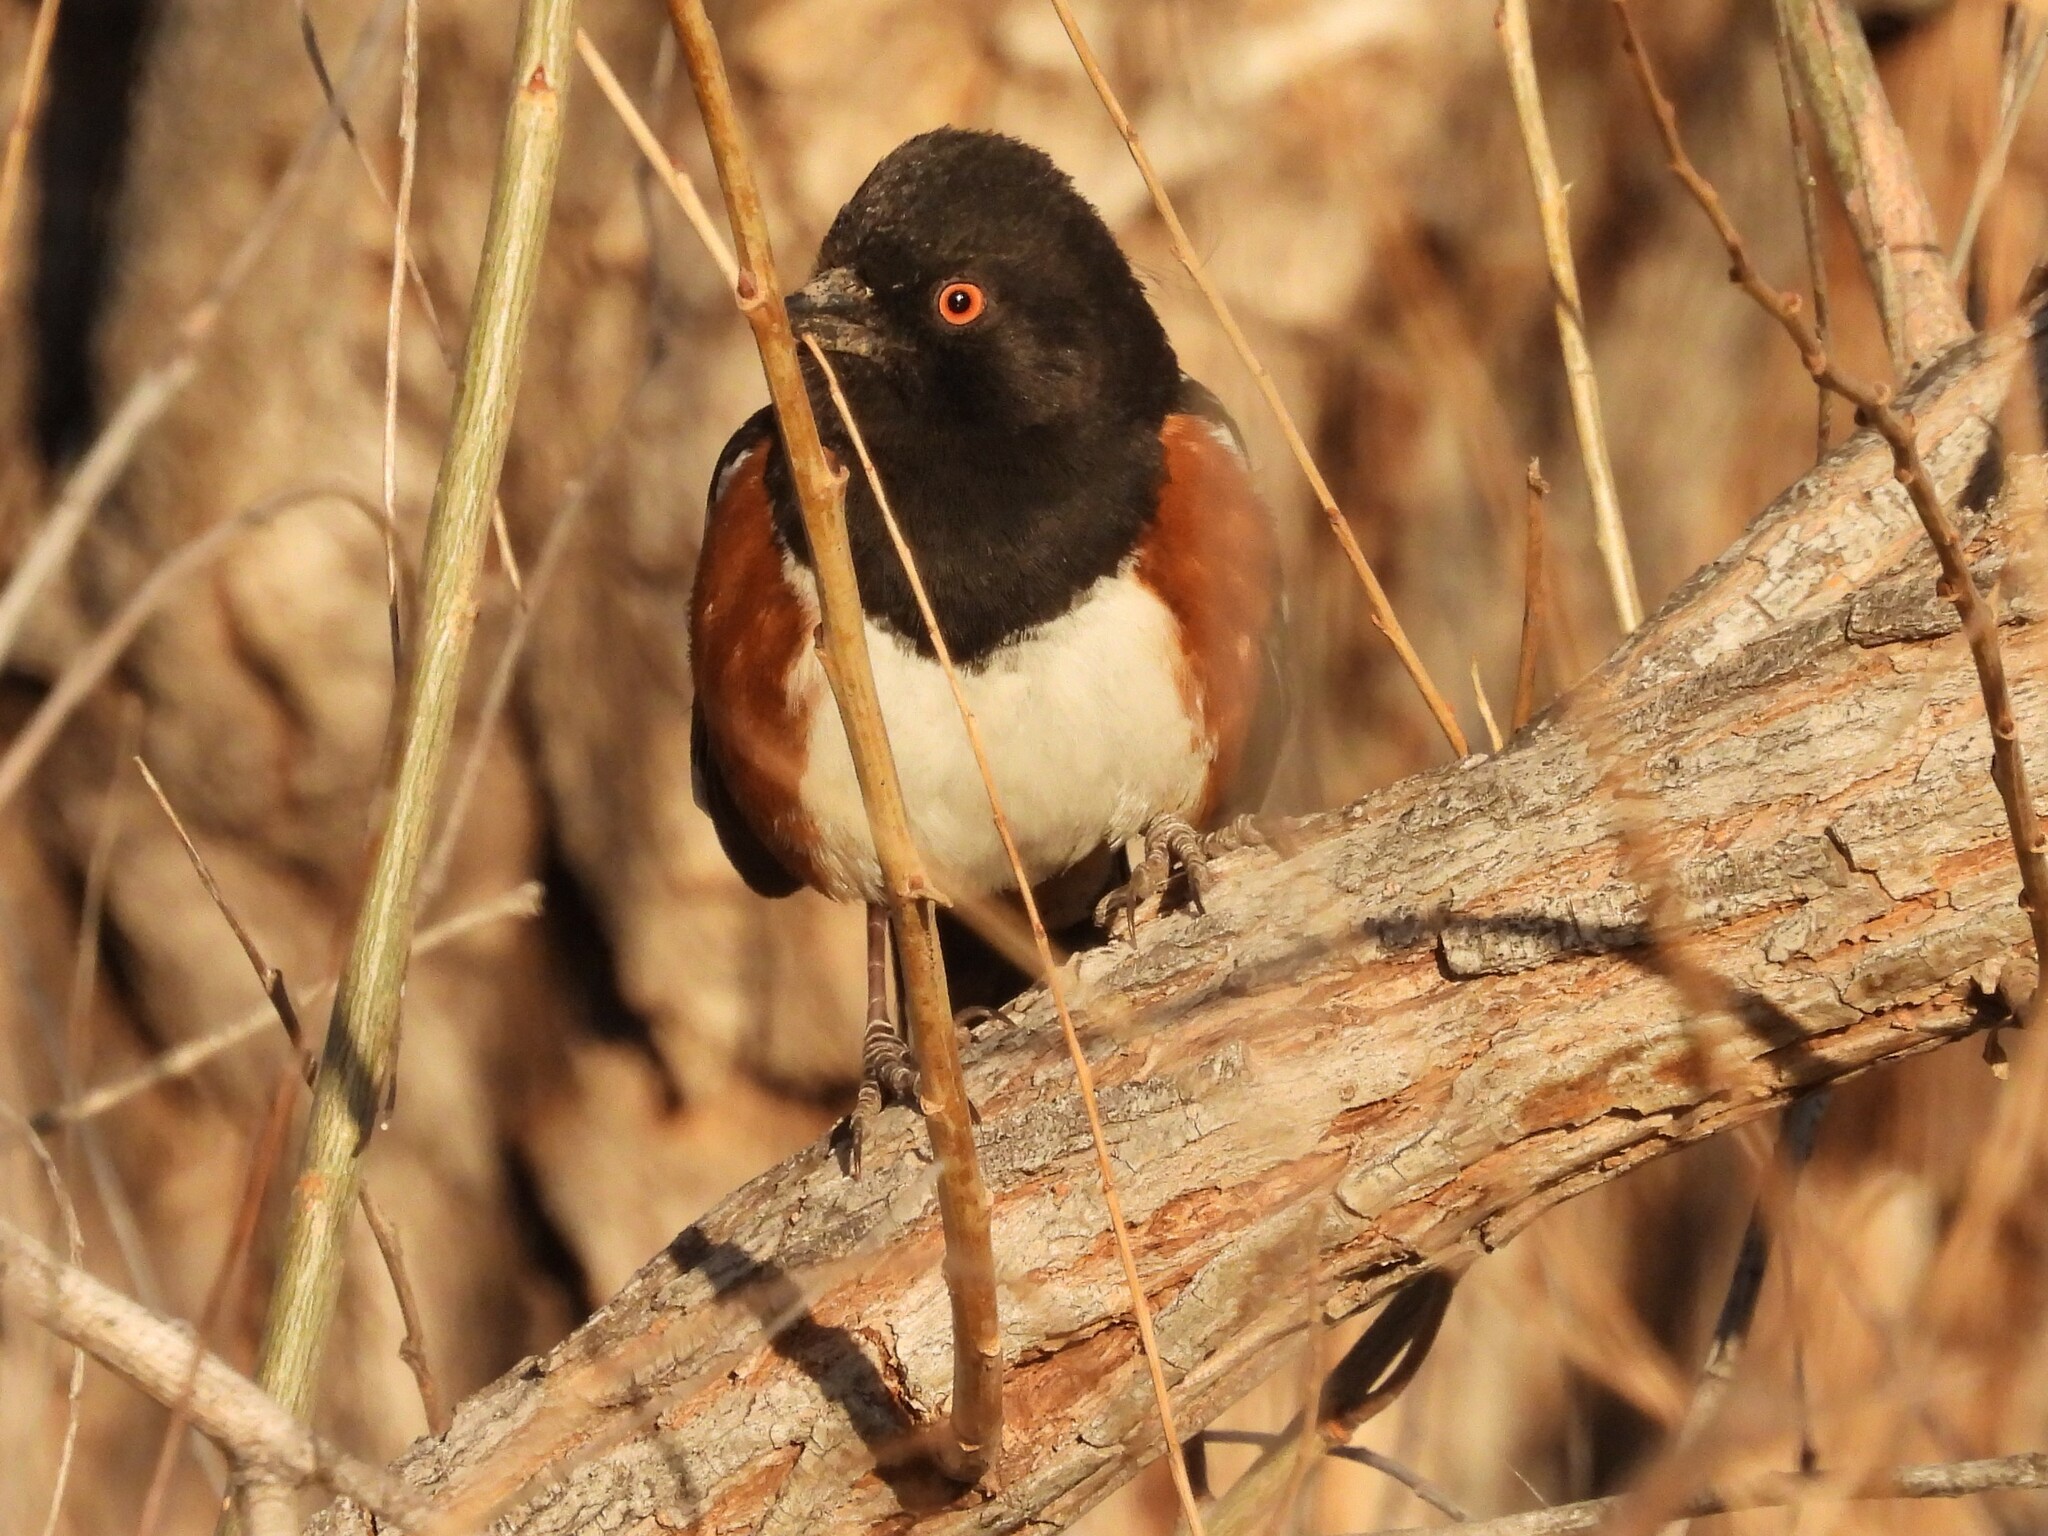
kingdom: Animalia
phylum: Chordata
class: Aves
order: Passeriformes
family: Passerellidae
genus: Pipilo
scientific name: Pipilo maculatus
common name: Spotted towhee
